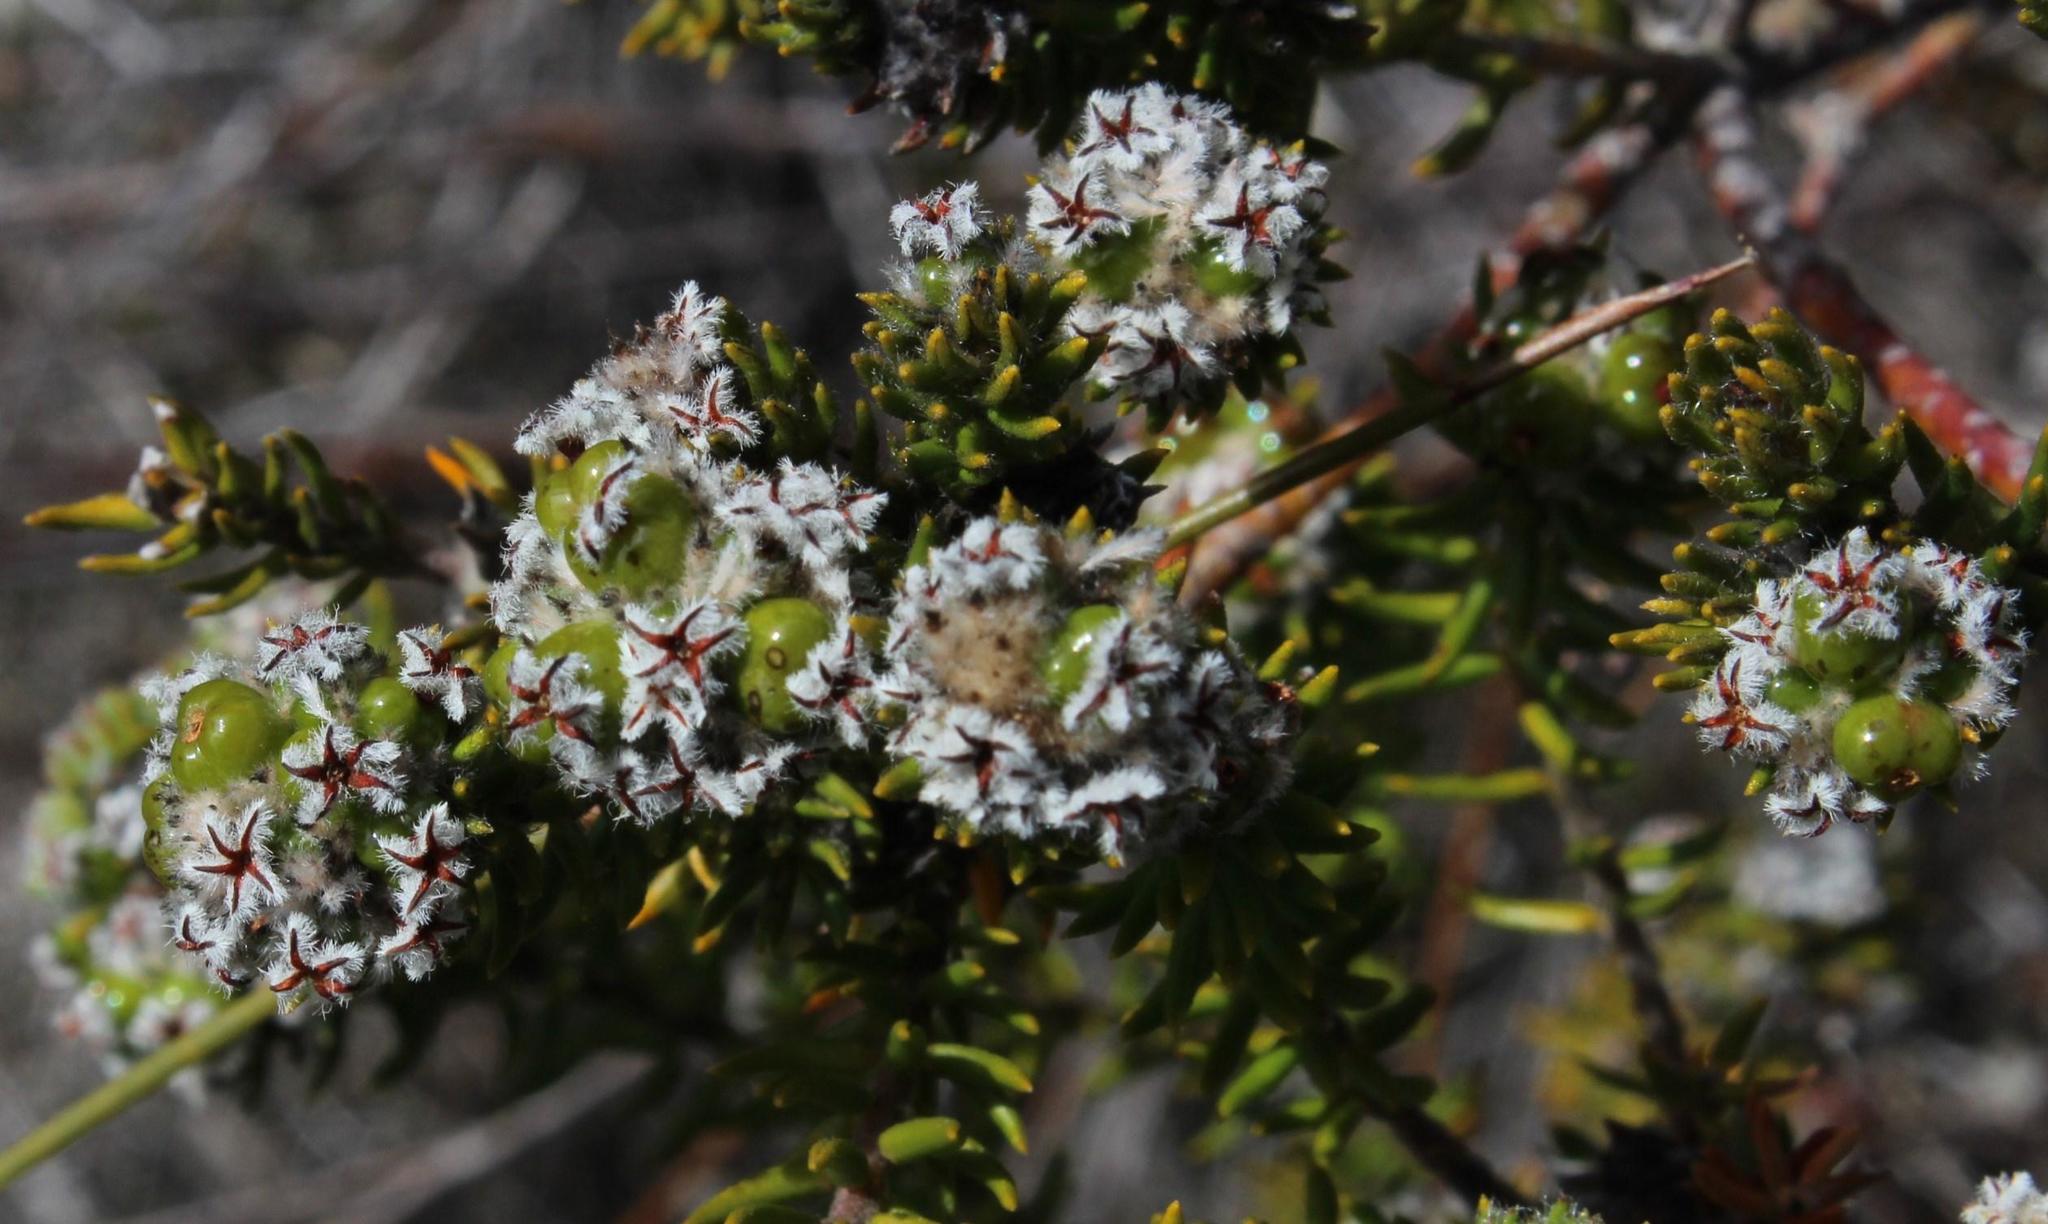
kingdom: Plantae
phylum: Tracheophyta
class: Magnoliopsida
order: Rosales
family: Rhamnaceae
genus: Phylica
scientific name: Phylica vulgaris
